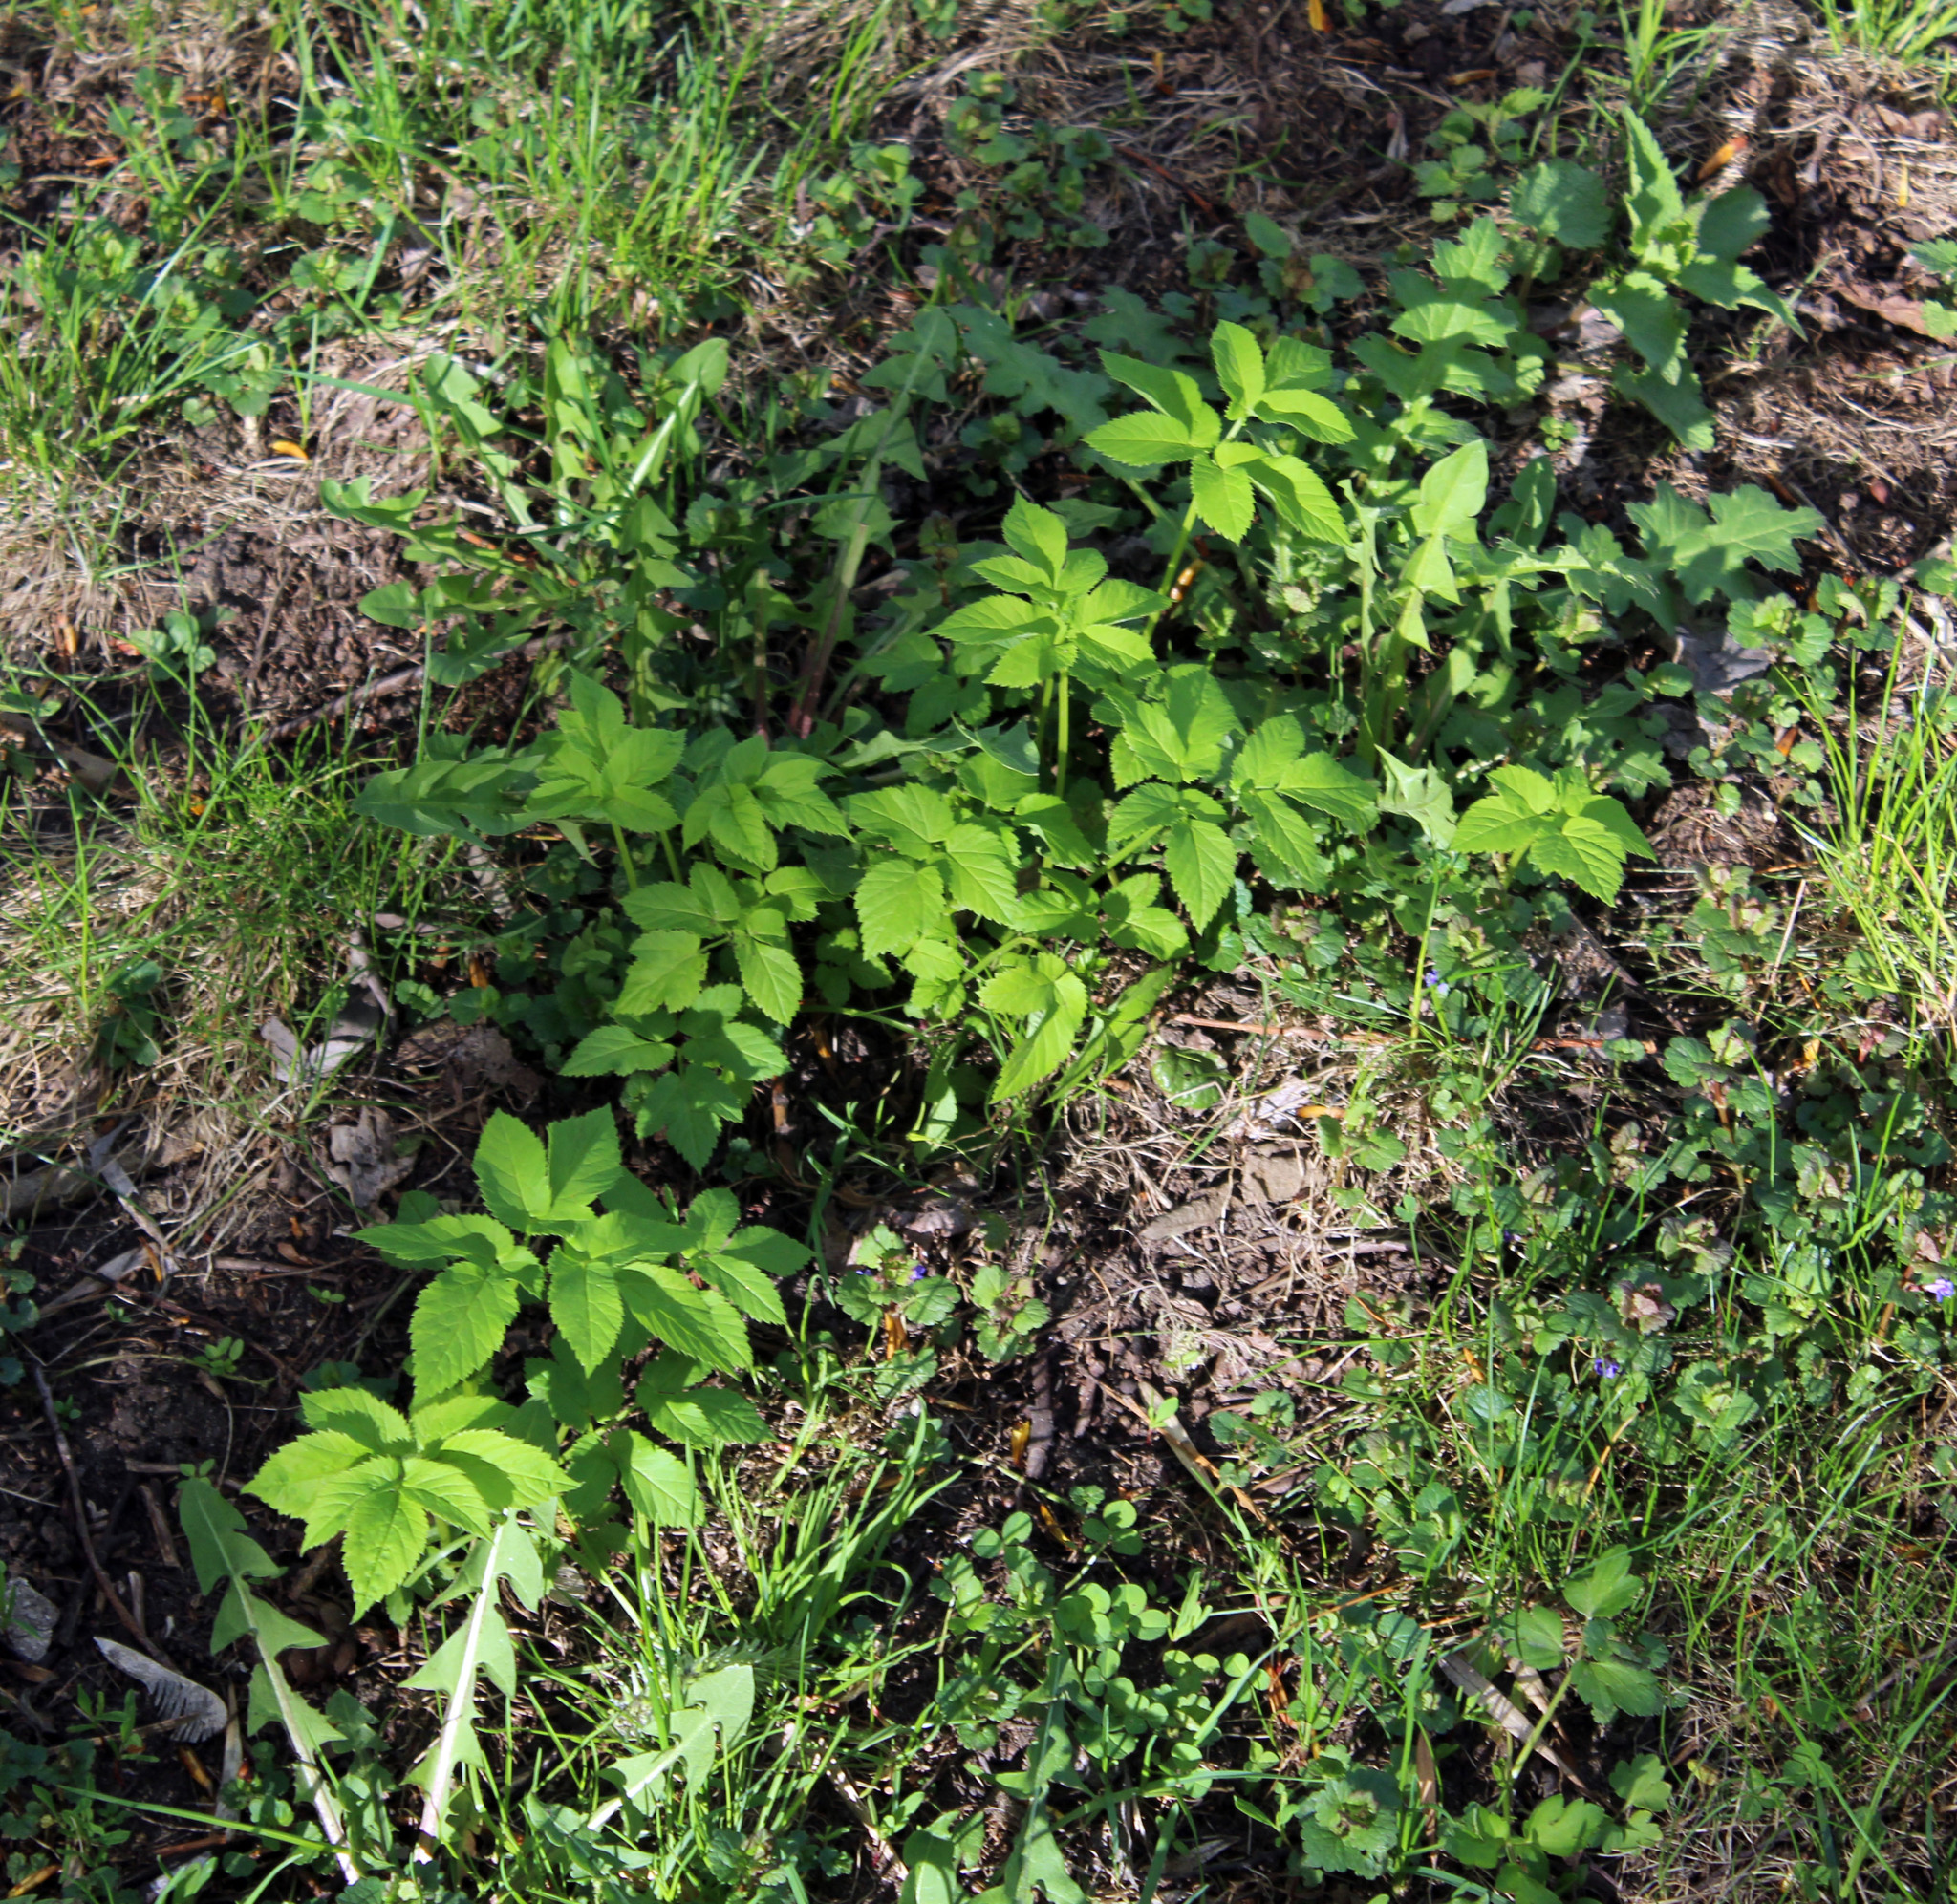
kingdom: Plantae
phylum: Tracheophyta
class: Magnoliopsida
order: Apiales
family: Apiaceae
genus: Aegopodium
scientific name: Aegopodium podagraria
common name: Ground-elder
